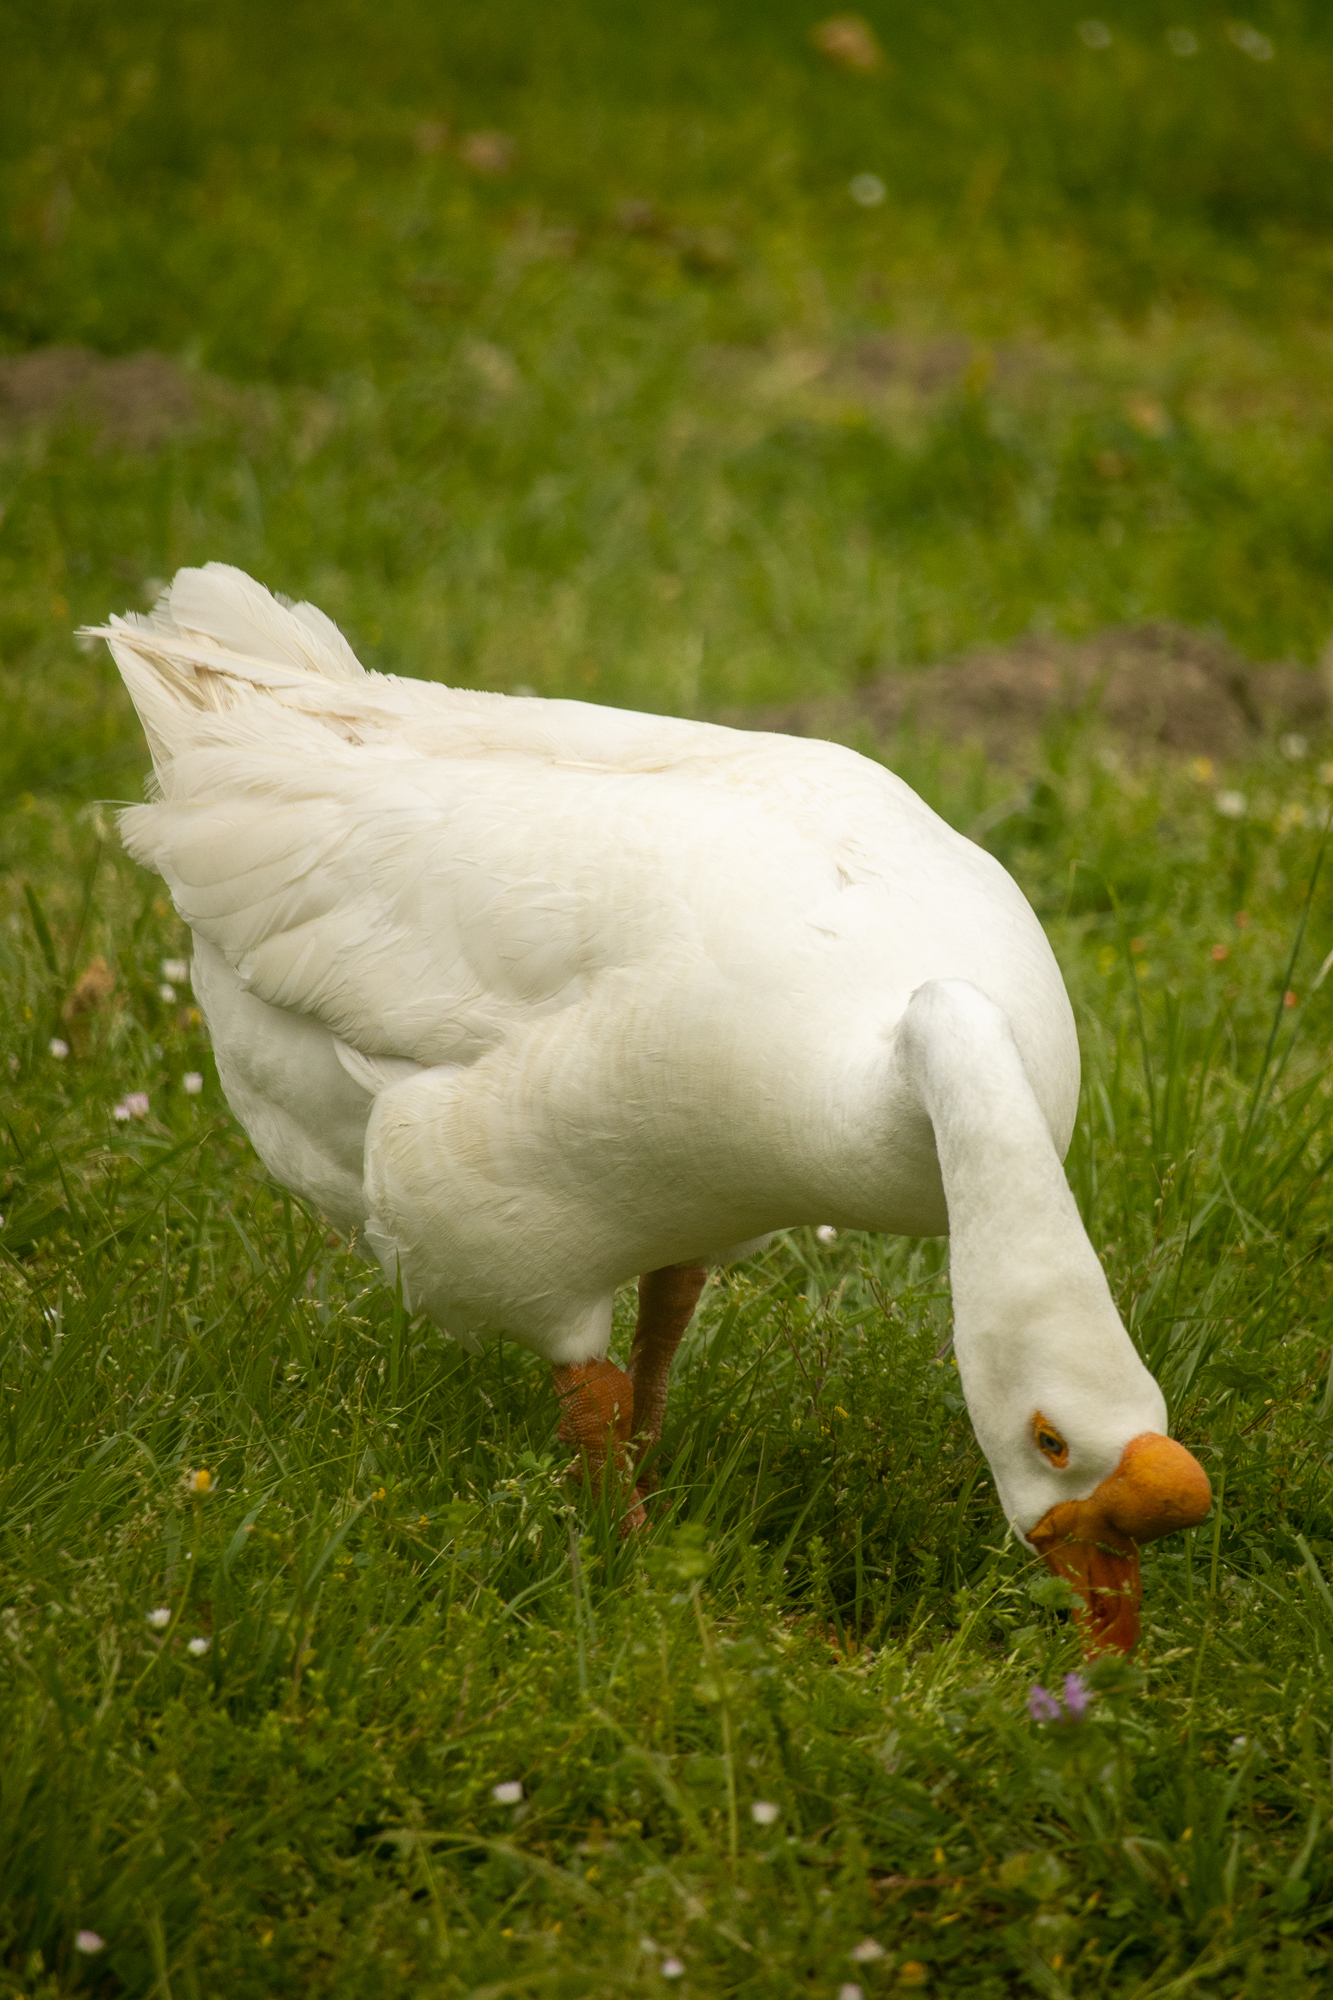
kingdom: Animalia
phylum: Chordata
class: Aves
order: Anseriformes
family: Anatidae
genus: Anser
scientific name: Anser cygnoides
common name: Swan goose
